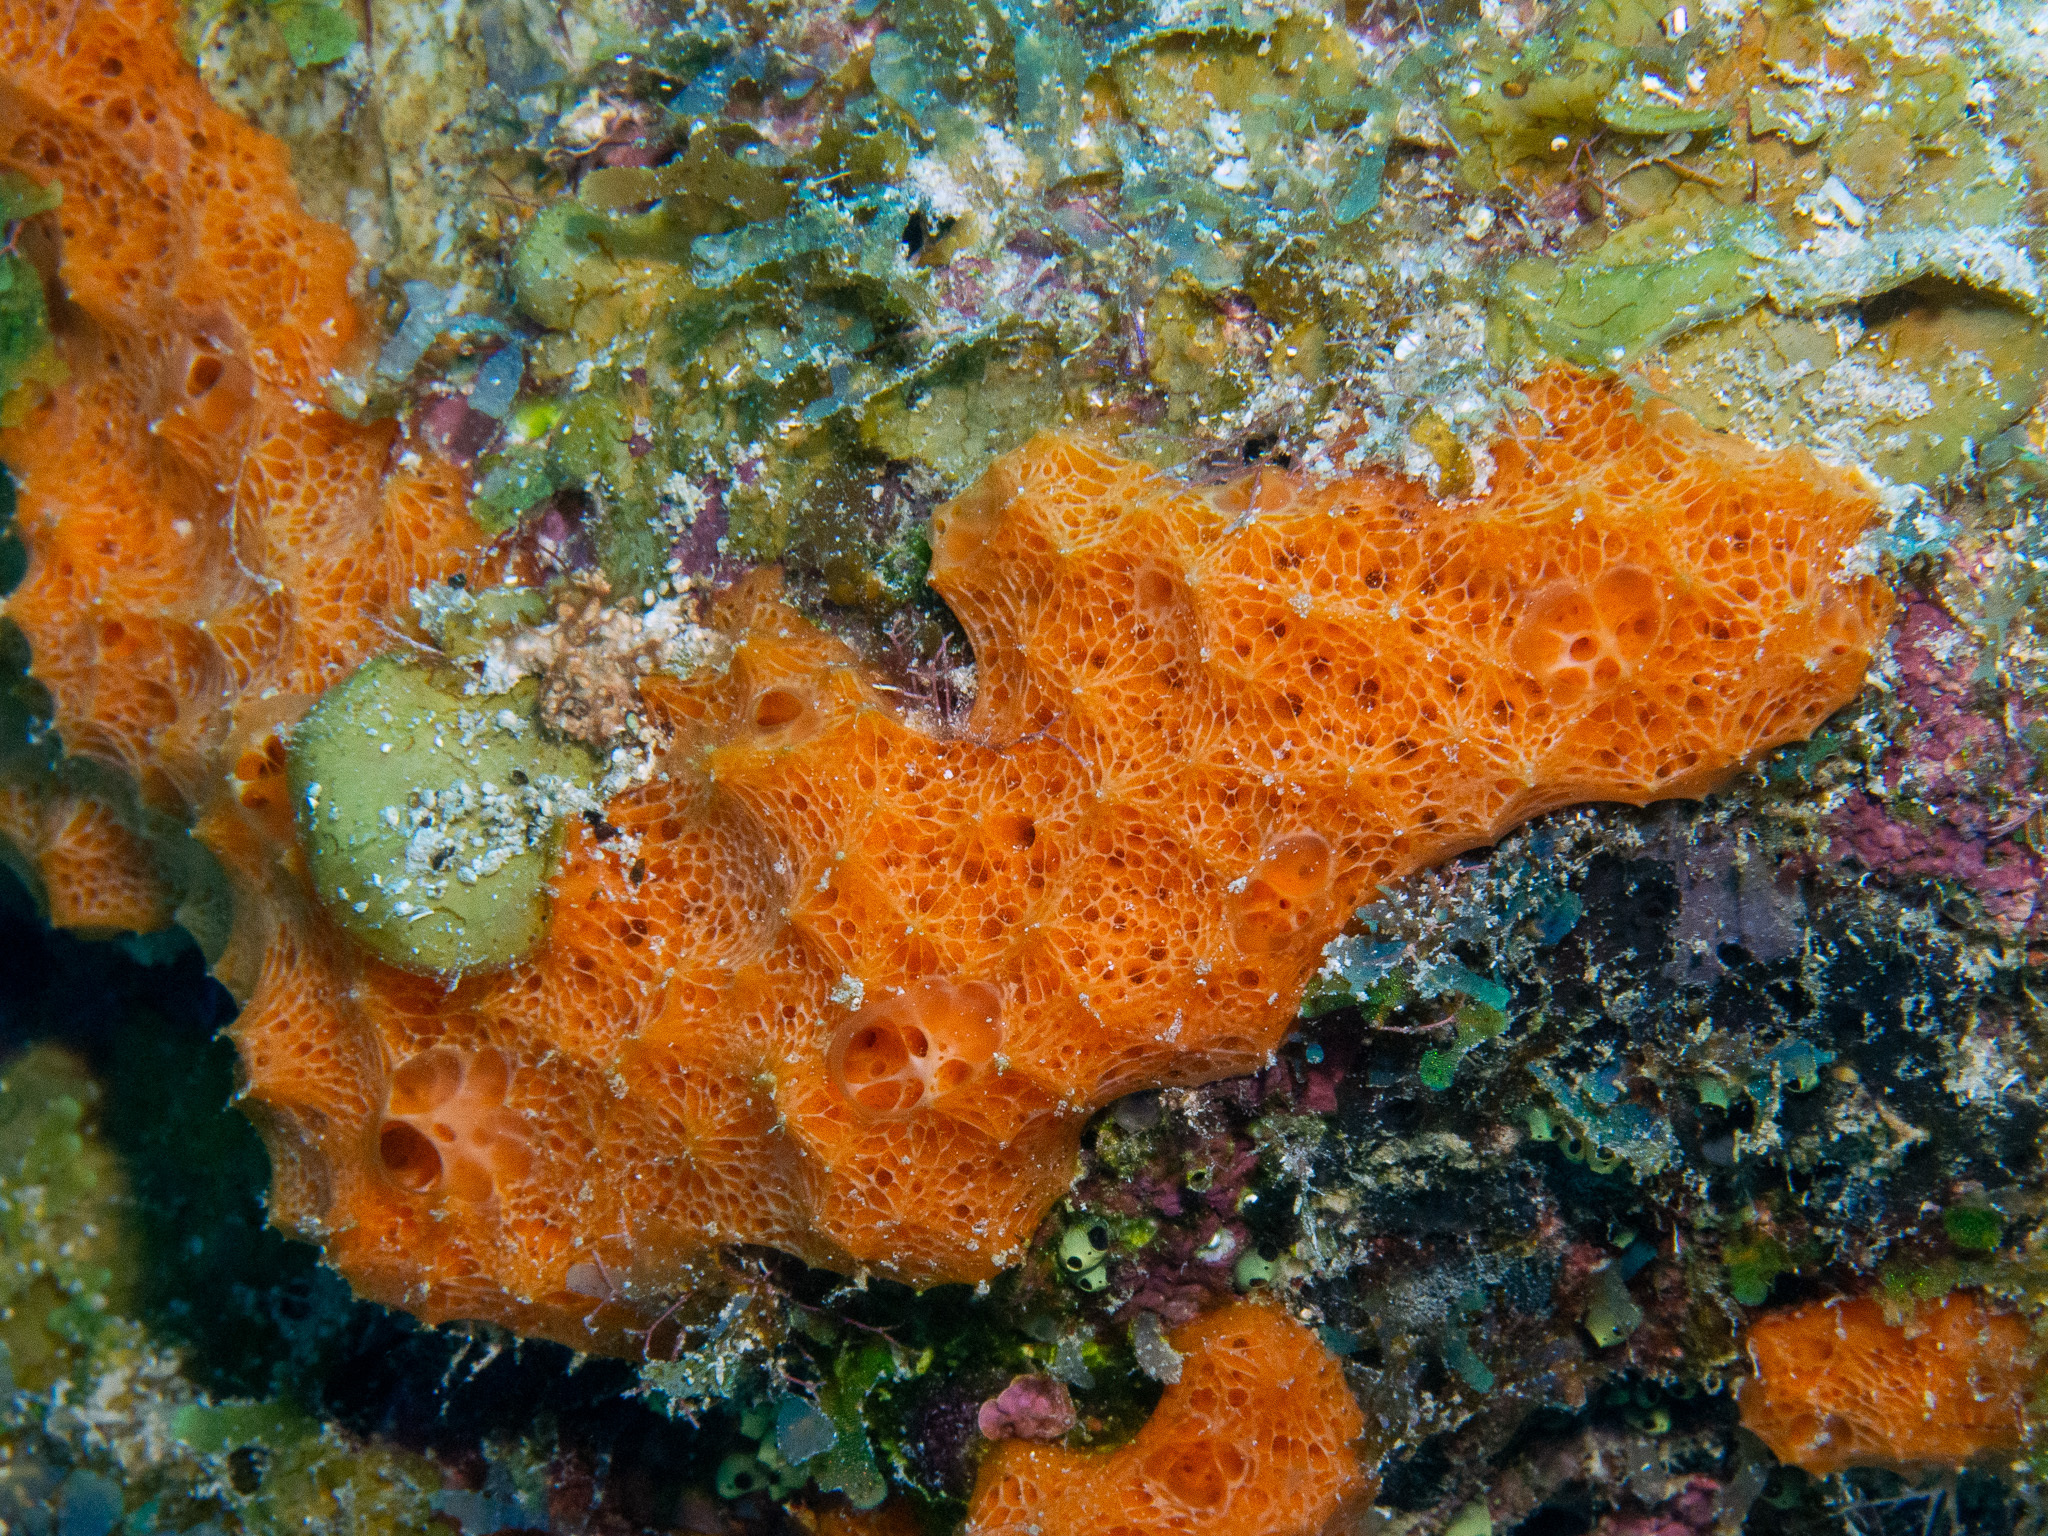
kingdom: Animalia
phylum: Porifera
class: Demospongiae
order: Scopalinida
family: Scopalinidae
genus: Scopalina
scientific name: Scopalina ruetzleri
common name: Orange lumpy encrusting sponge
